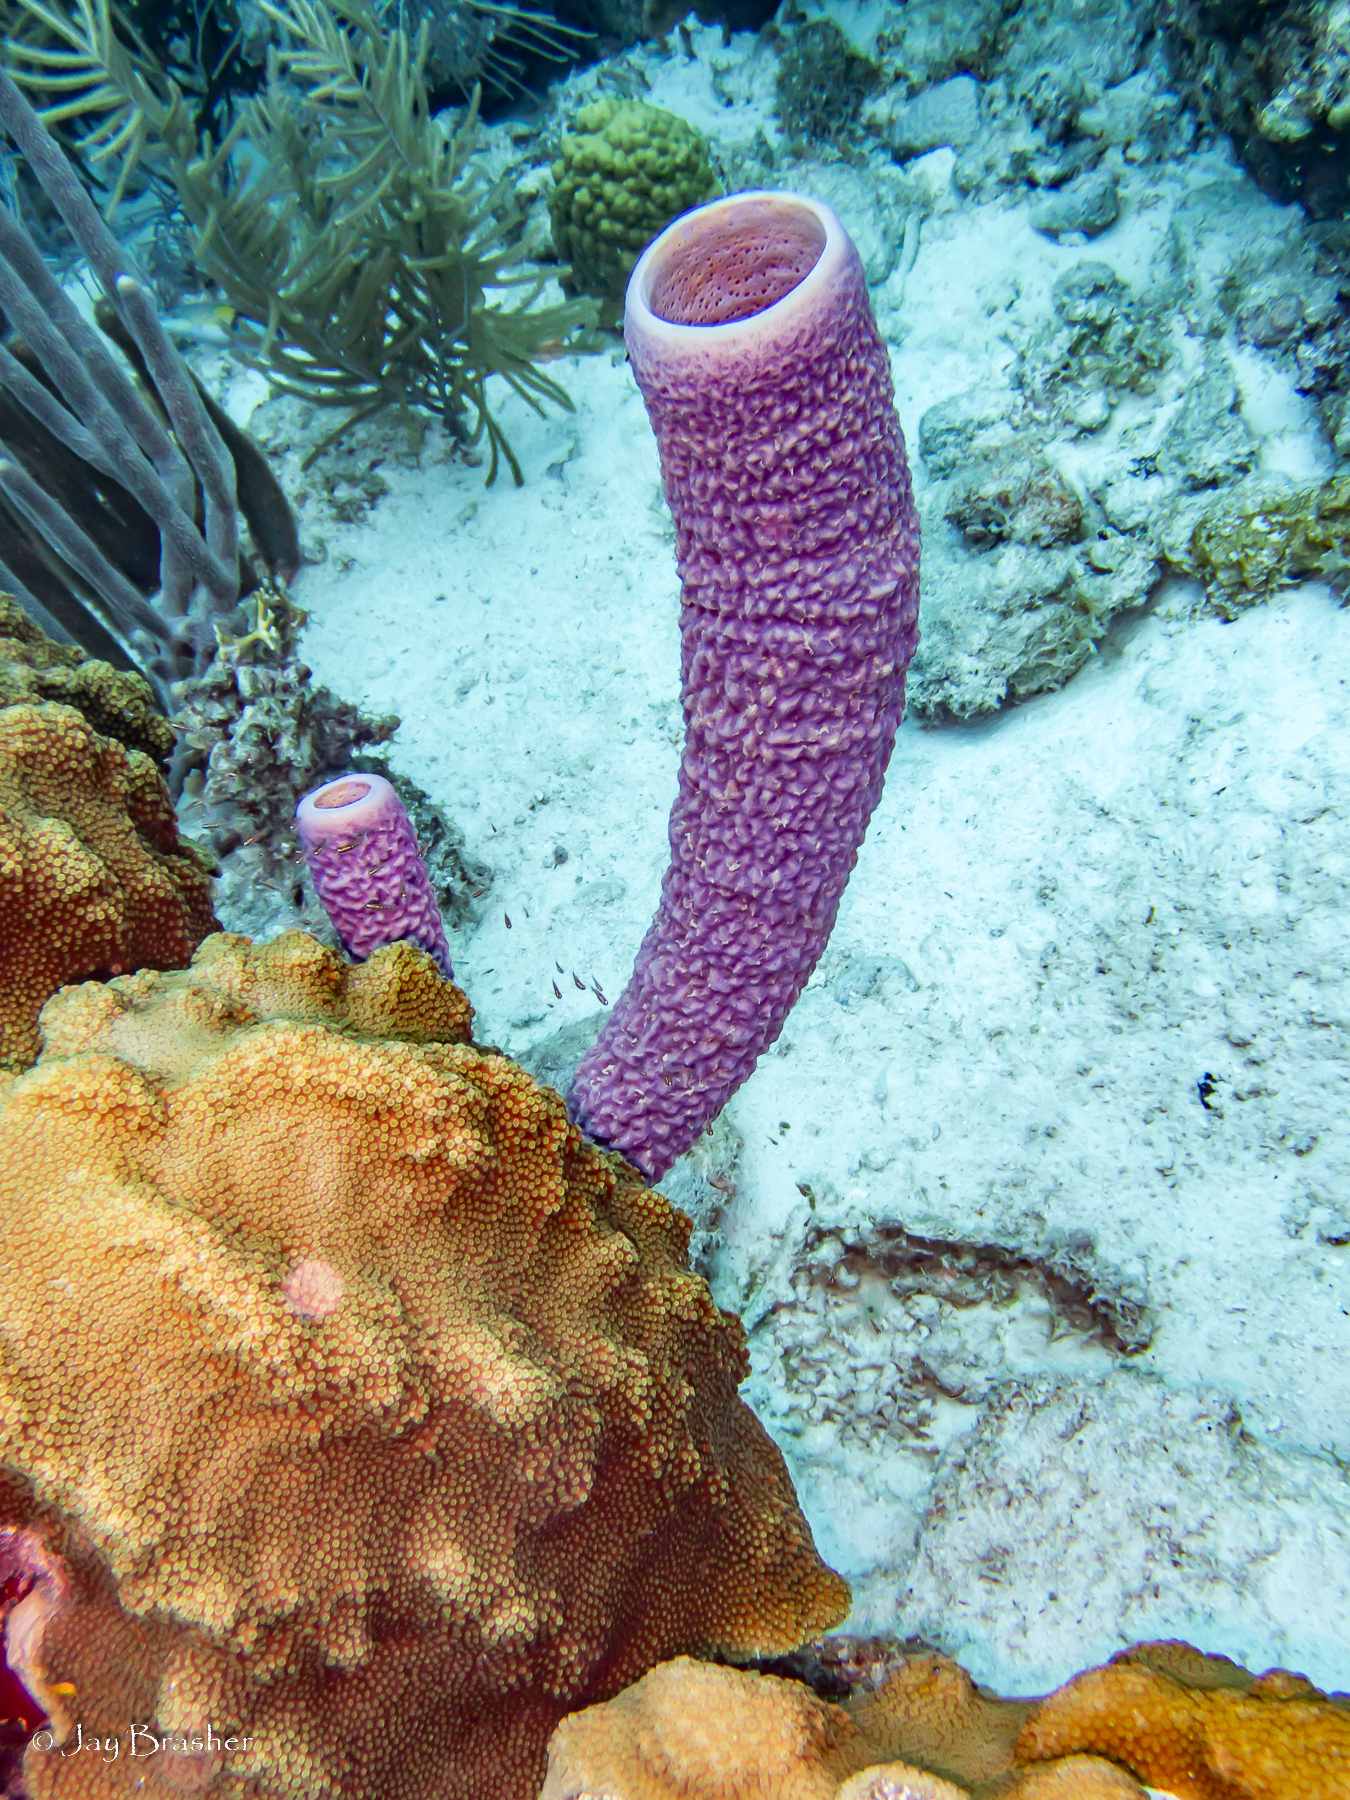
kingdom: Animalia
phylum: Porifera
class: Demospongiae
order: Verongiida
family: Aplysinidae
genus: Aplysina
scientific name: Aplysina archeri
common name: Stove-pipe sponge
